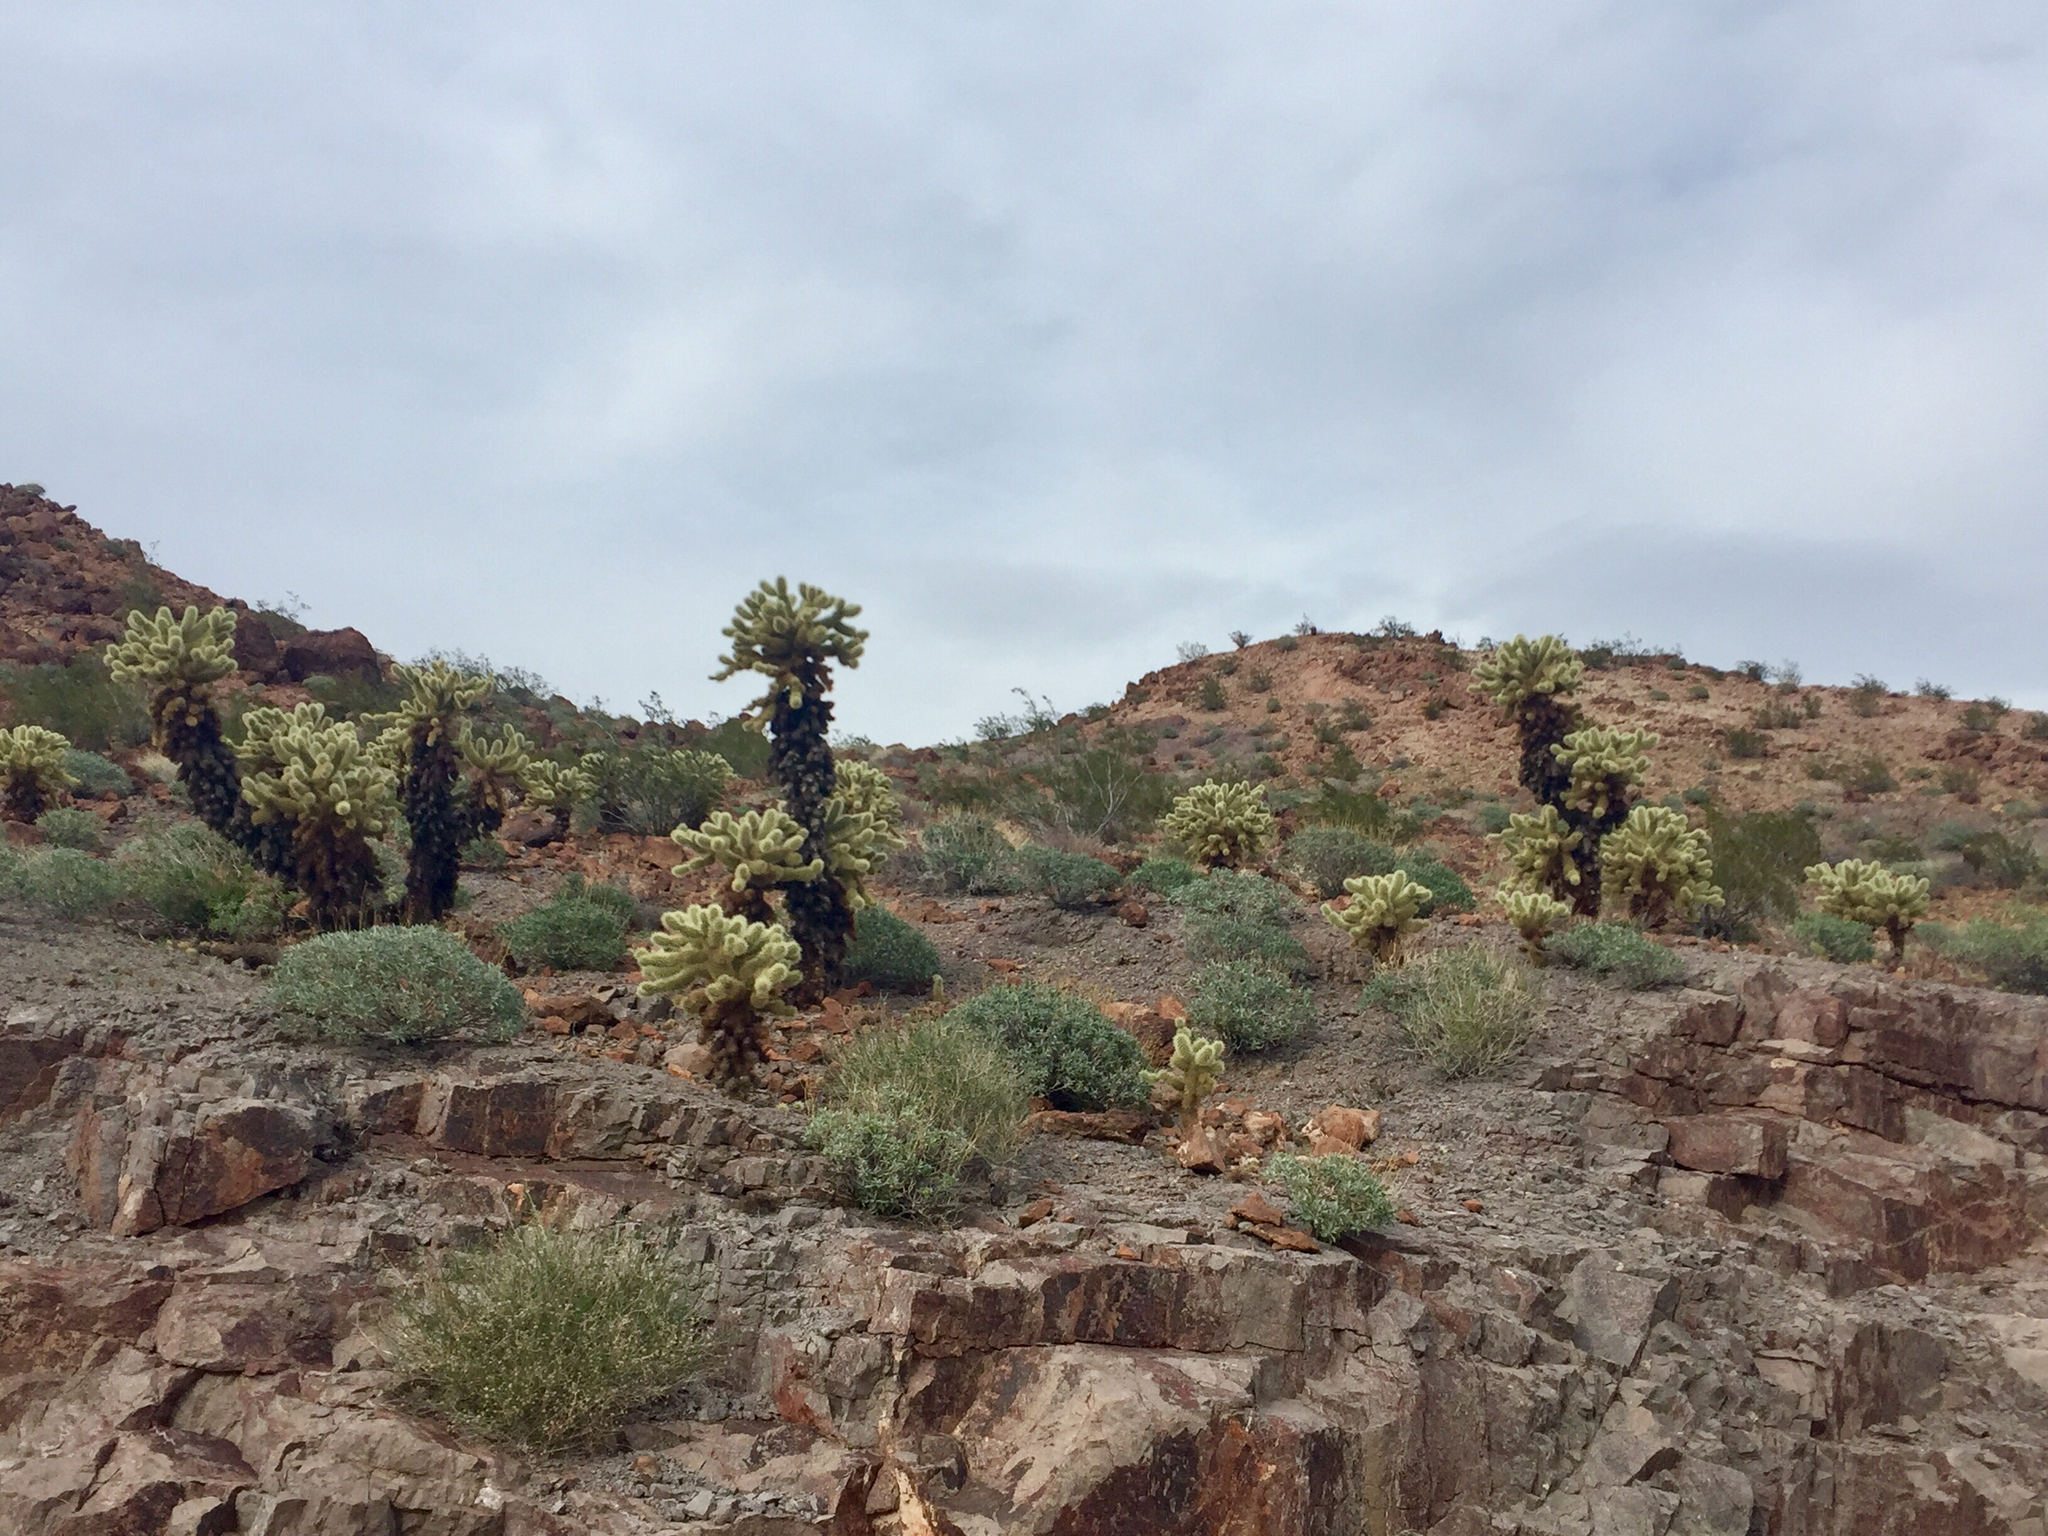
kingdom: Plantae
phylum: Tracheophyta
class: Magnoliopsida
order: Caryophyllales
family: Cactaceae
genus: Cylindropuntia
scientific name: Cylindropuntia fosbergii
